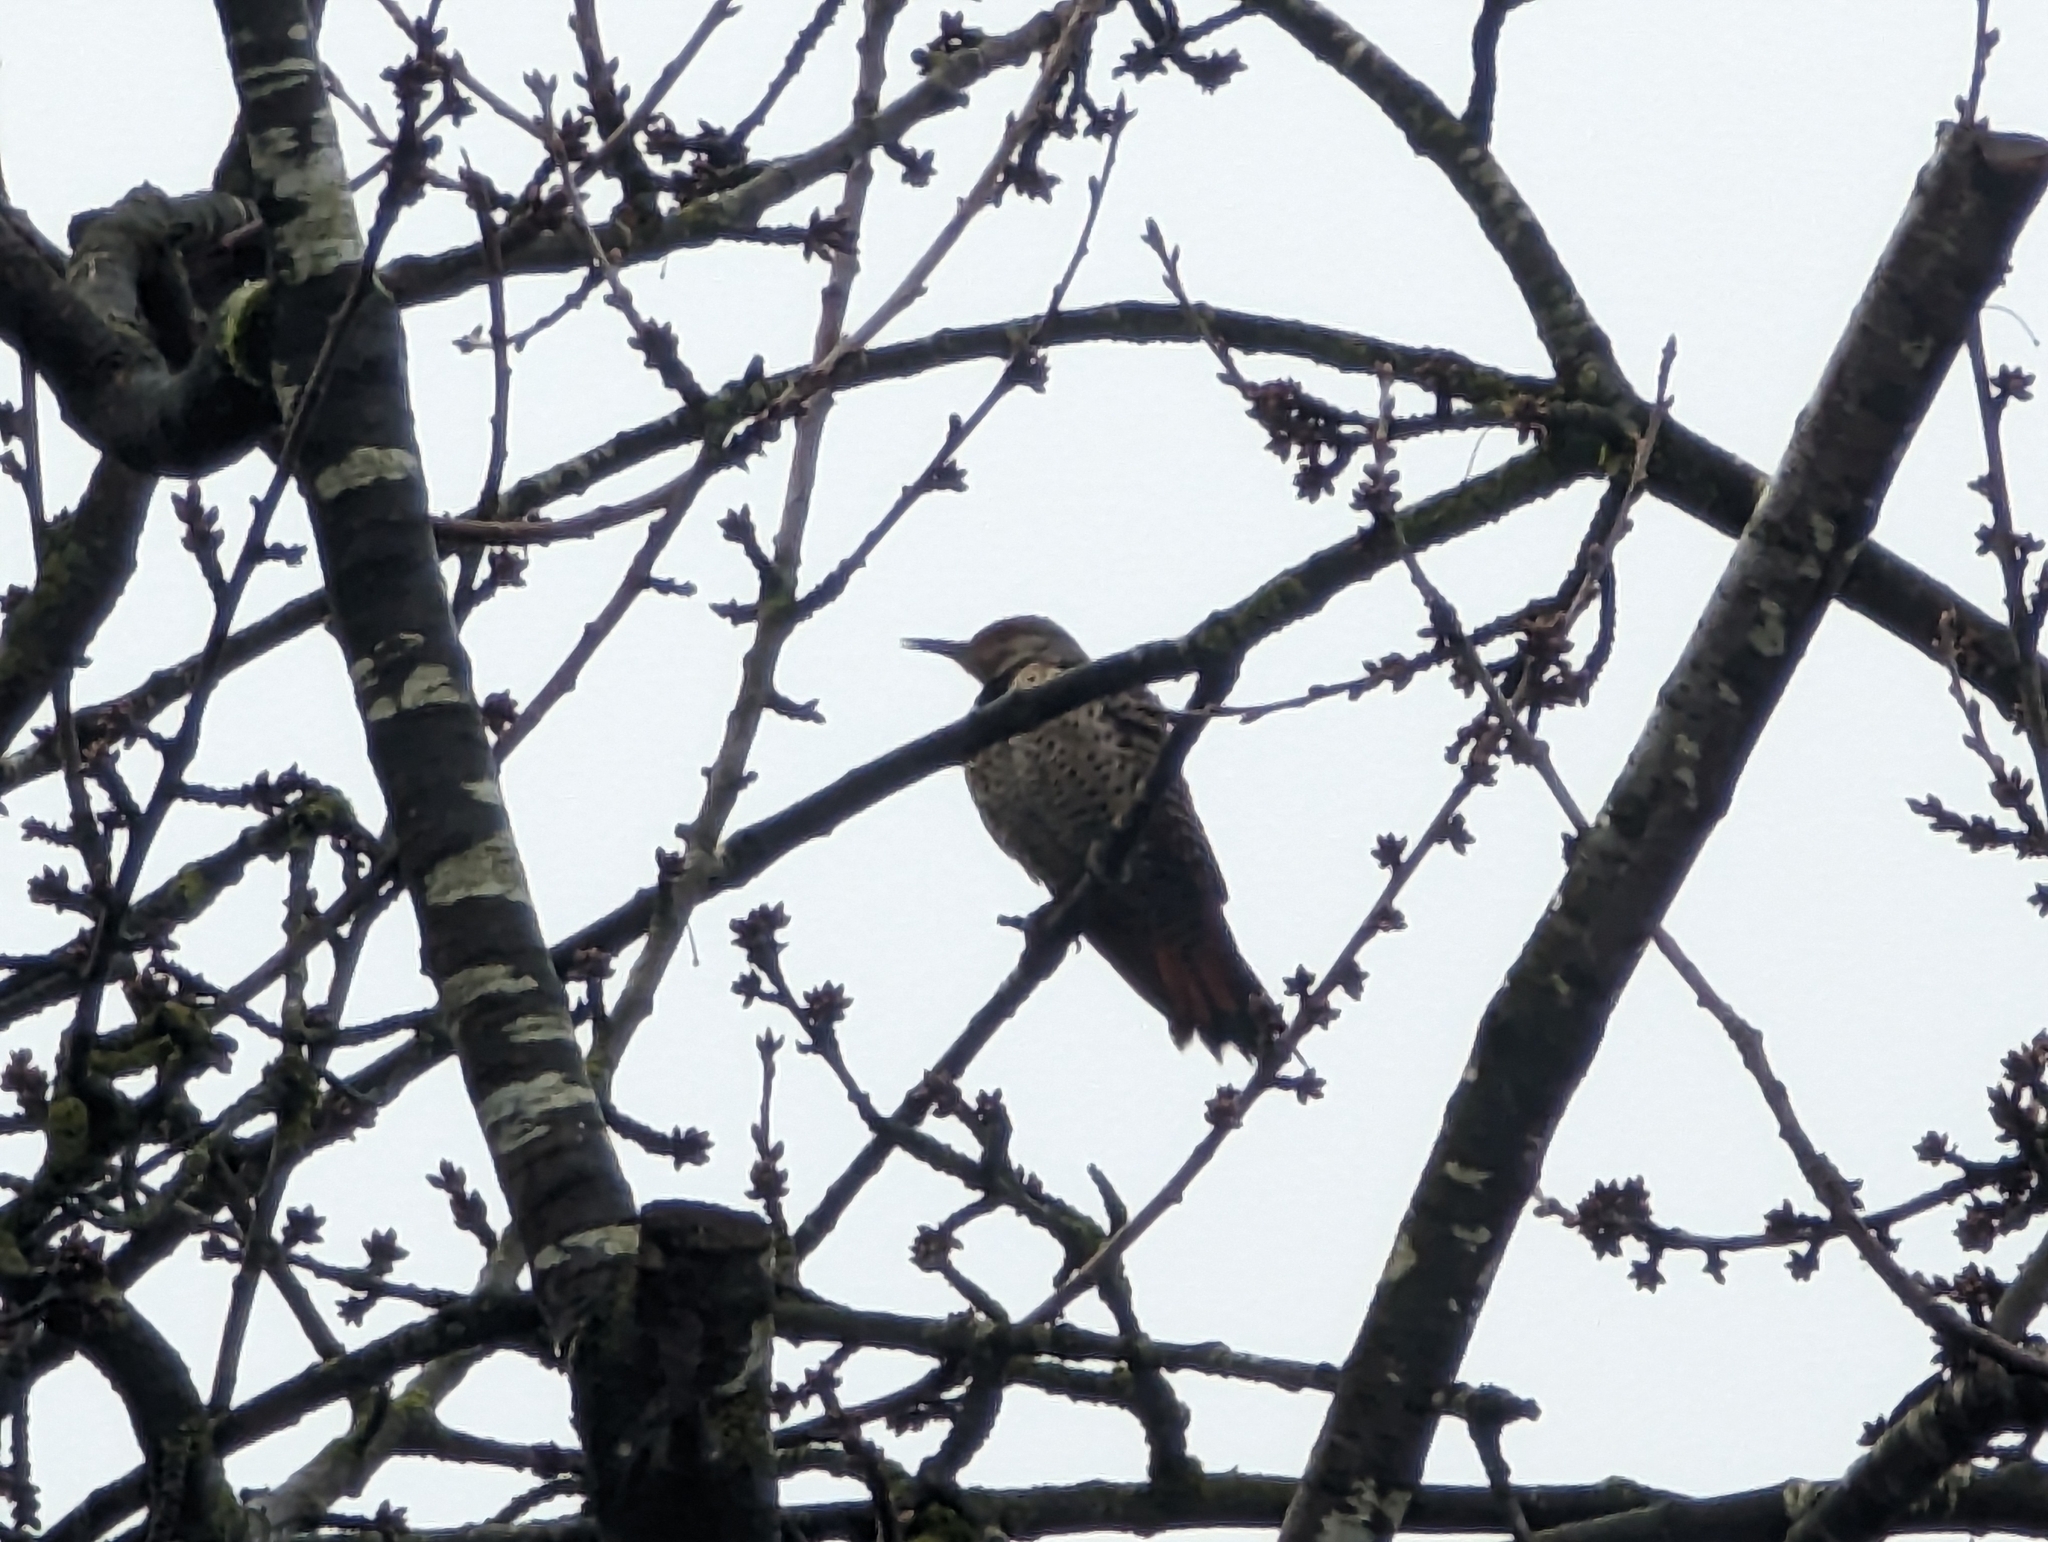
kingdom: Animalia
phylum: Chordata
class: Aves
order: Piciformes
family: Picidae
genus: Colaptes
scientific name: Colaptes auratus
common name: Northern flicker
